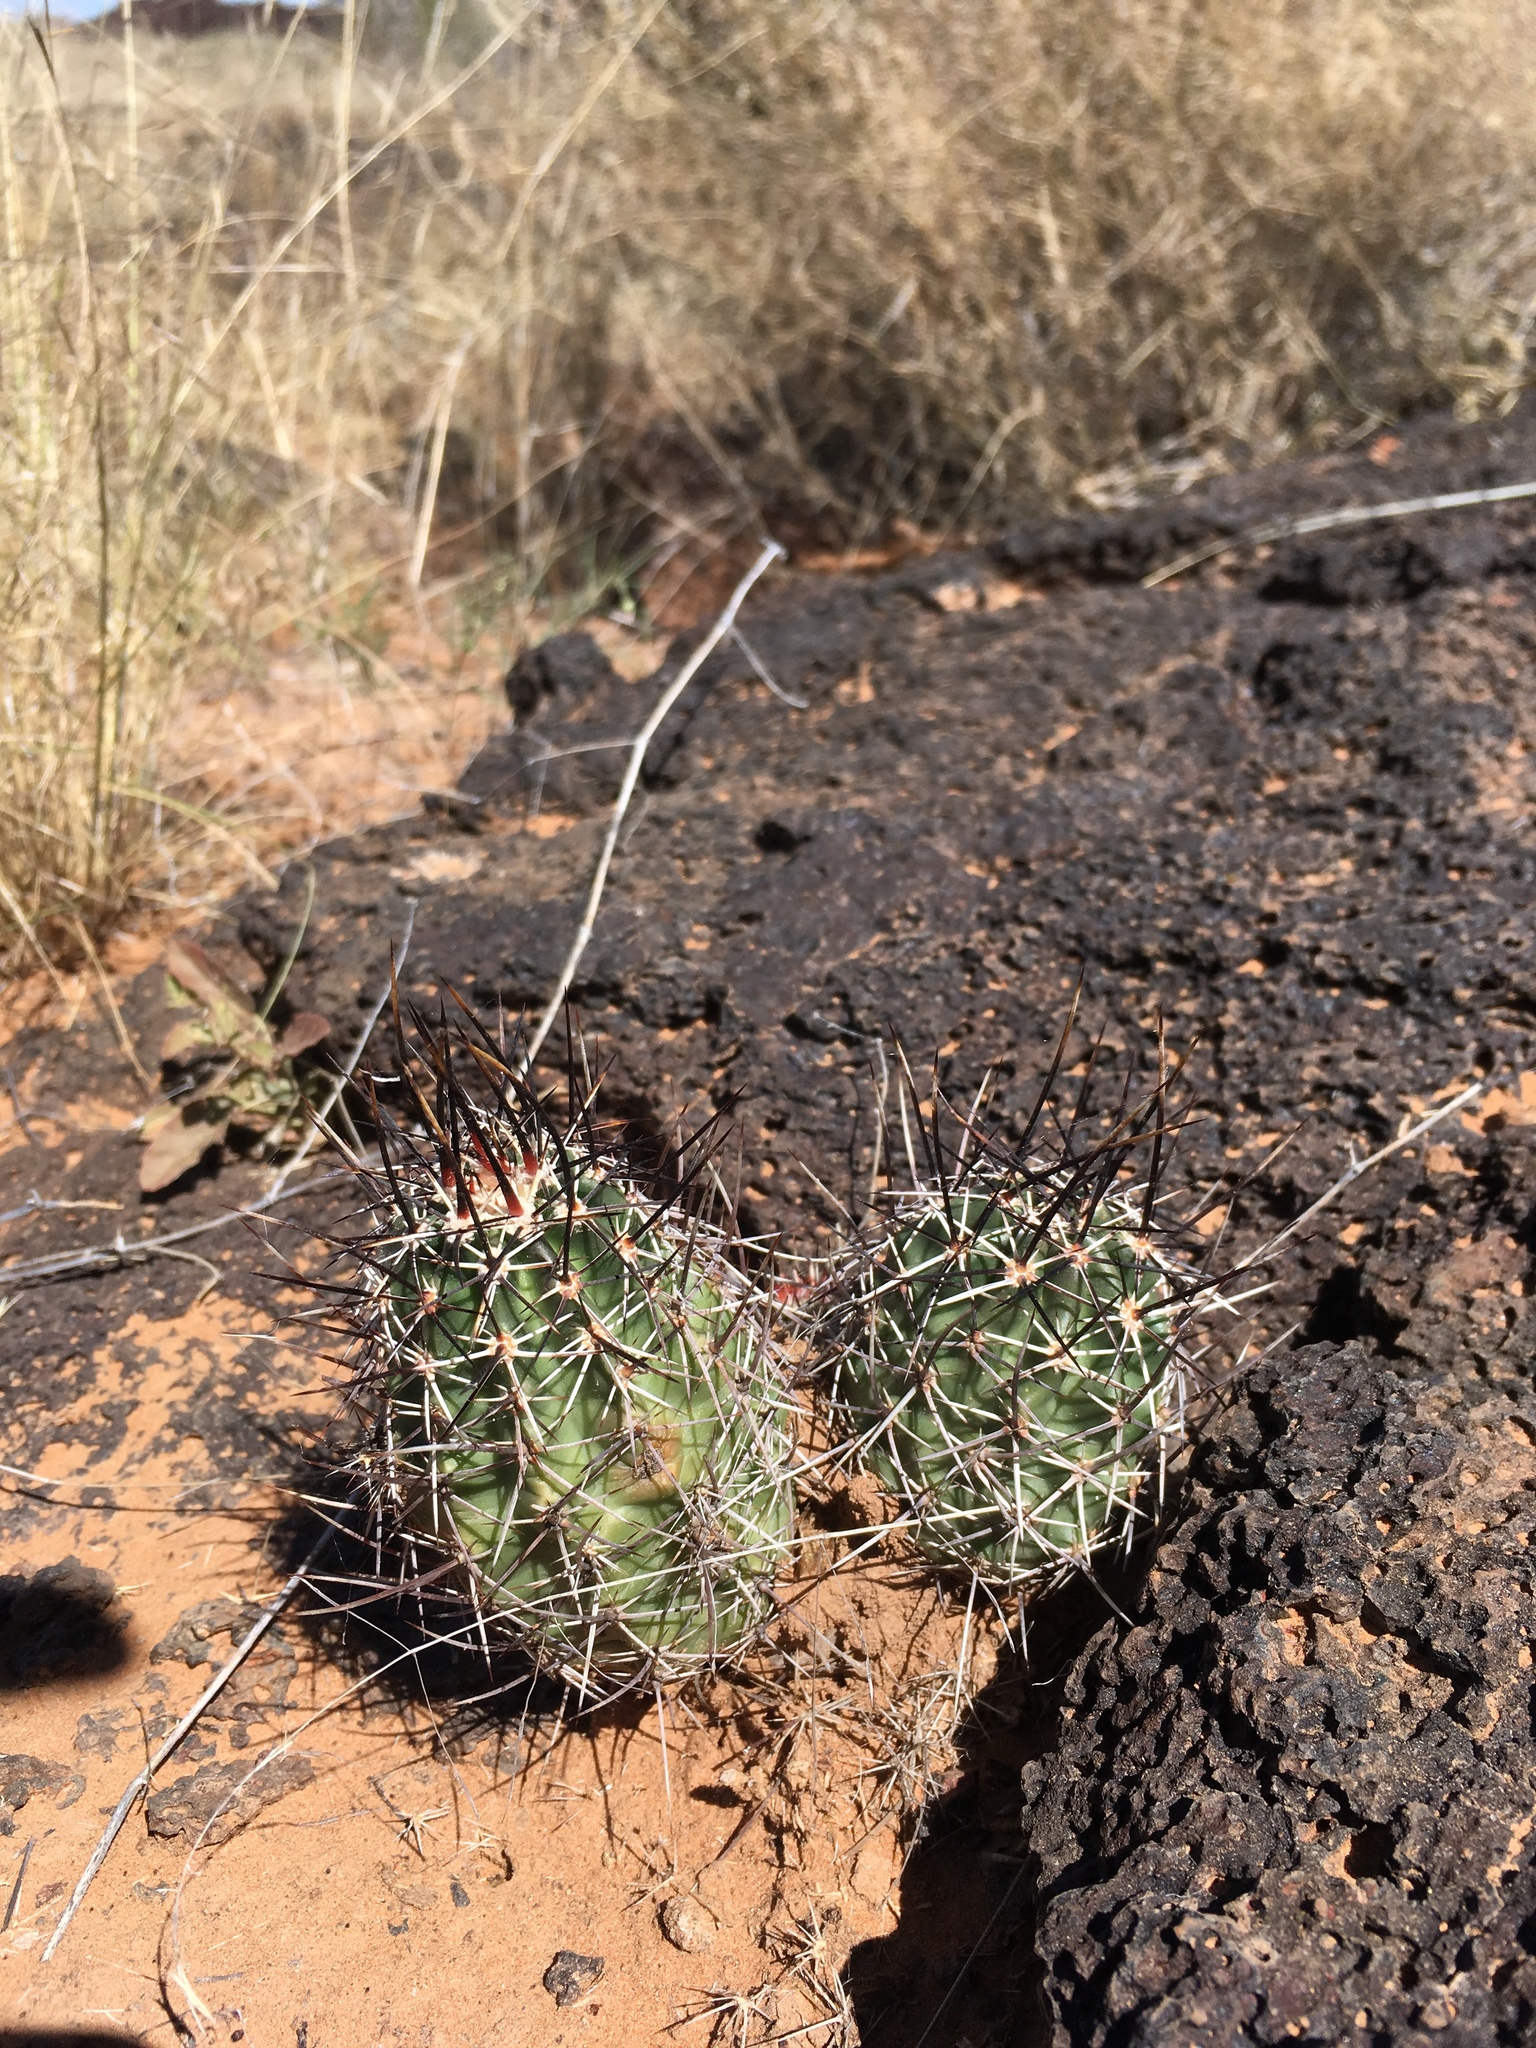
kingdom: Plantae
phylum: Tracheophyta
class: Magnoliopsida
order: Caryophyllales
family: Cactaceae
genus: Echinocereus
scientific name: Echinocereus fendleri
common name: Fendler's hedgehog cactus
